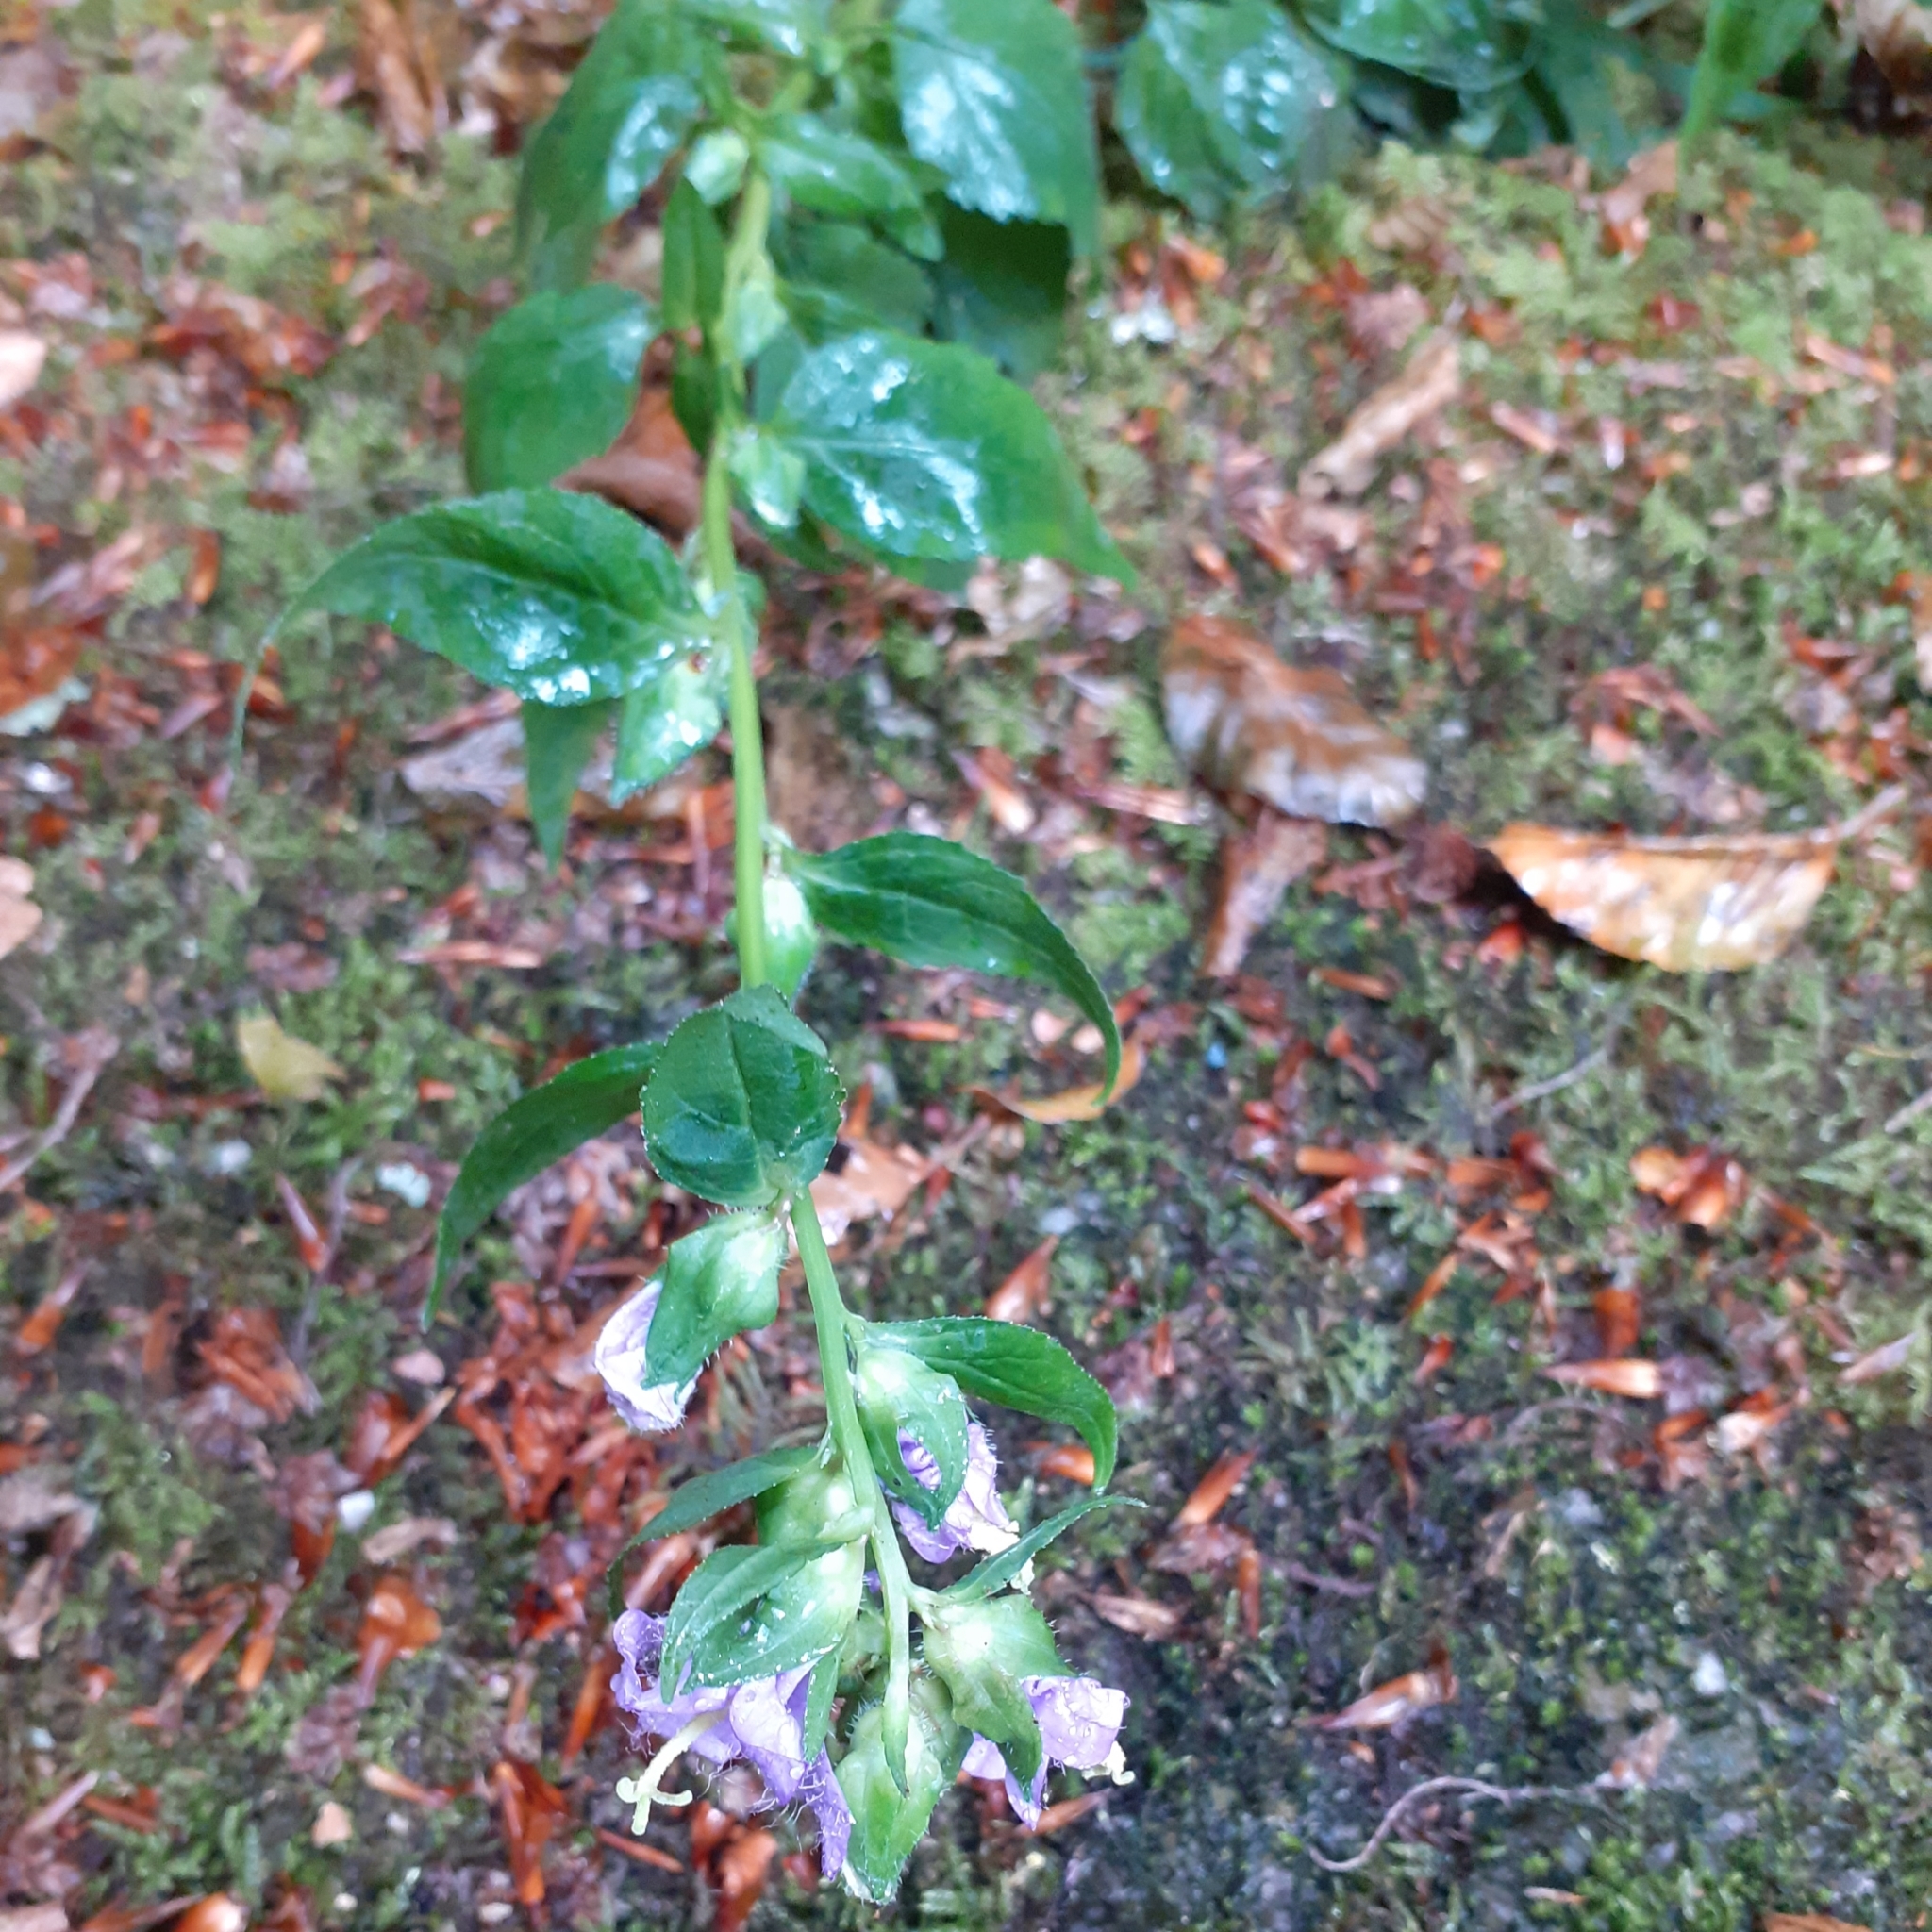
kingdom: Plantae
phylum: Tracheophyta
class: Magnoliopsida
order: Asterales
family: Campanulaceae
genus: Campanula
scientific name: Campanula trachelium
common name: Nettle-leaved bellflower
